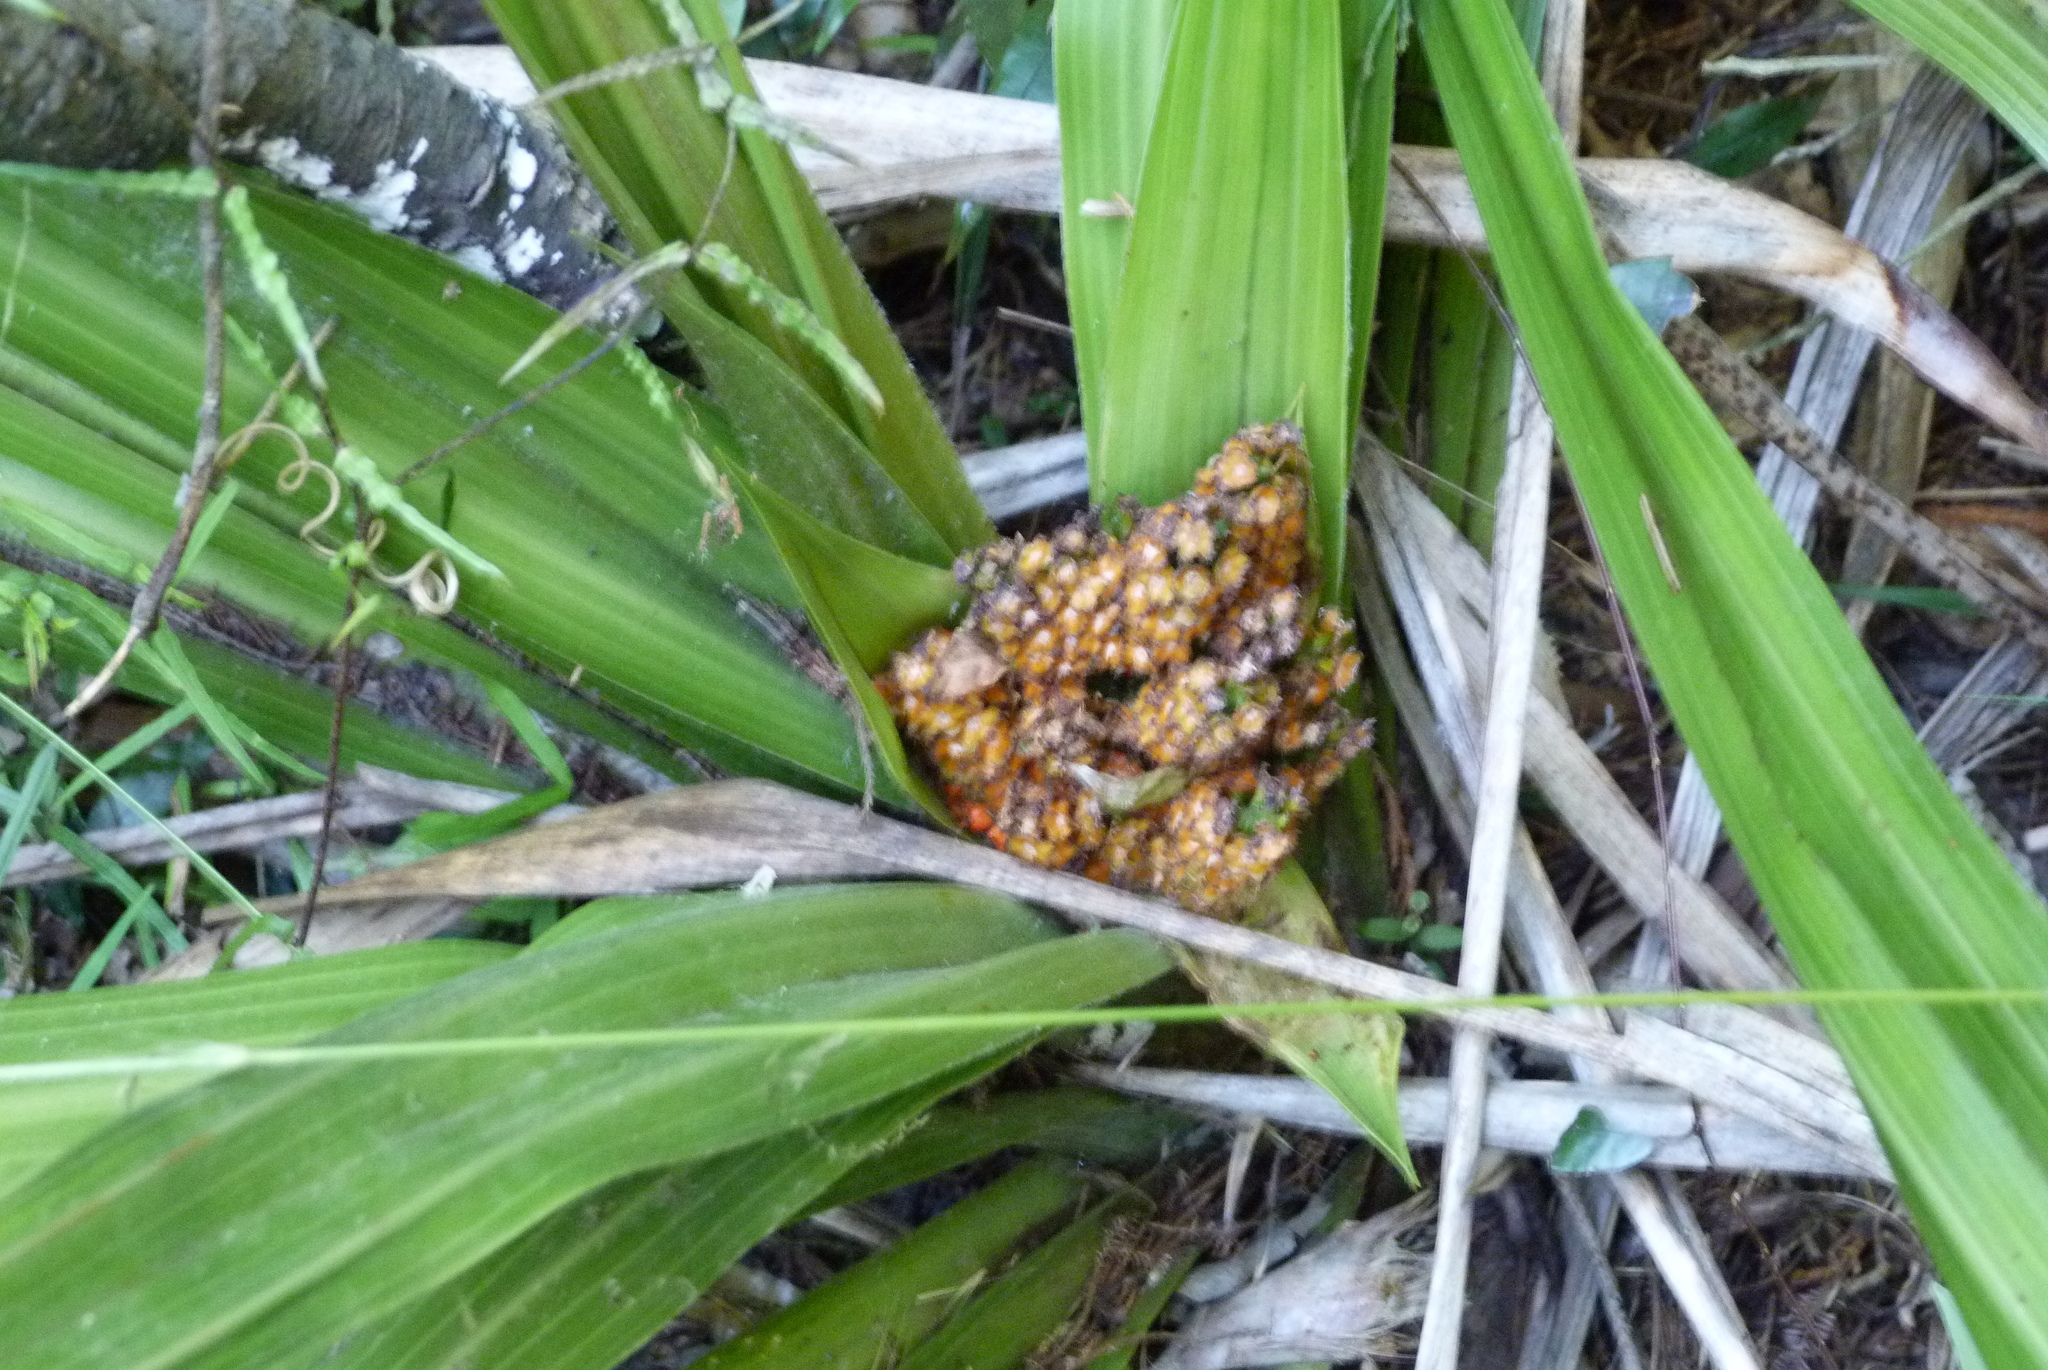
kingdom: Plantae
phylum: Tracheophyta
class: Liliopsida
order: Asparagales
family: Asteliaceae
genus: Astelia
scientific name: Astelia grandis
